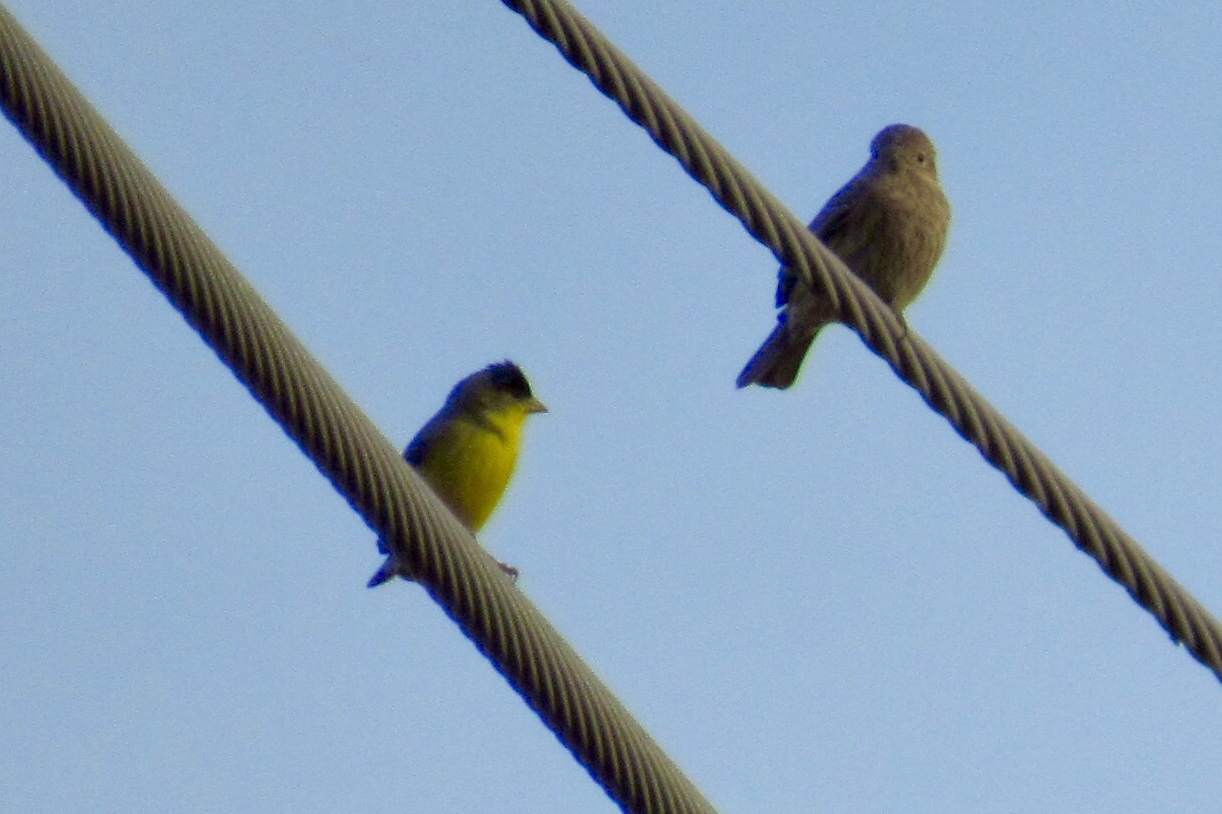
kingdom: Animalia
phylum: Chordata
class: Aves
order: Passeriformes
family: Fringillidae
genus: Spinus
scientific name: Spinus psaltria
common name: Lesser goldfinch
